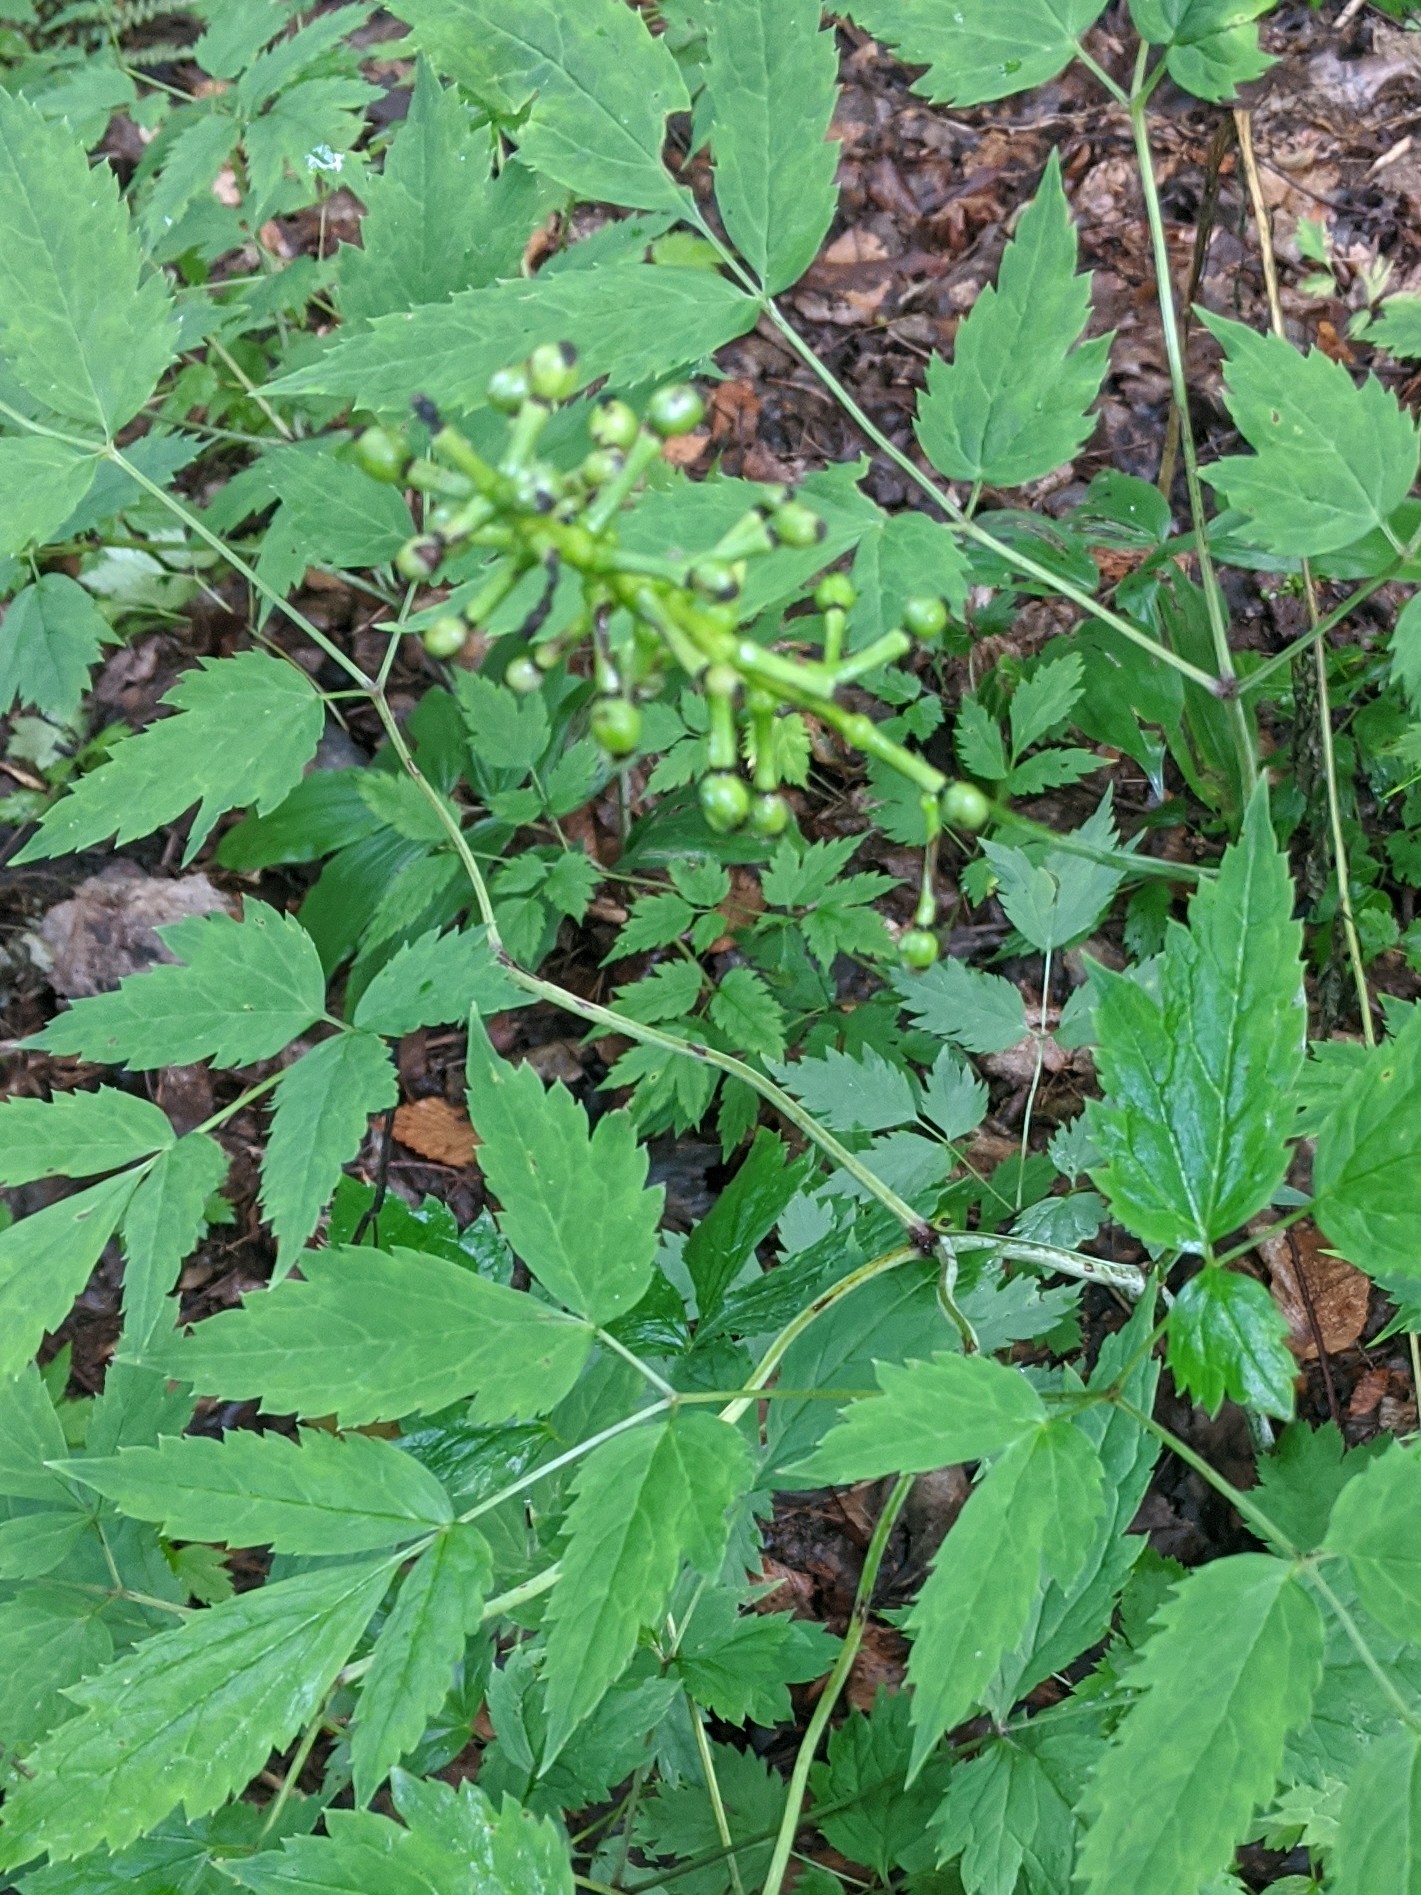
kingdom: Plantae
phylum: Tracheophyta
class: Magnoliopsida
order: Ranunculales
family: Ranunculaceae
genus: Actaea
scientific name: Actaea pachypoda
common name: Doll's-eyes
